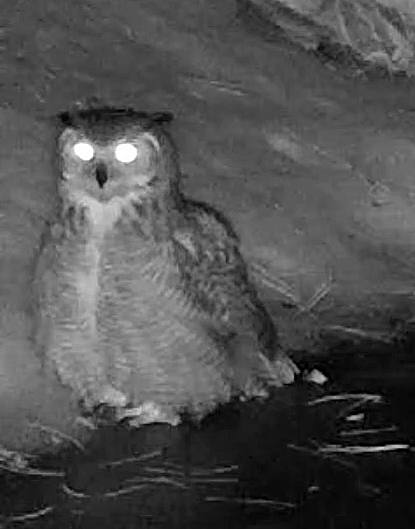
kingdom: Animalia
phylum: Chordata
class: Aves
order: Strigiformes
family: Strigidae
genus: Bubo
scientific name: Bubo virginianus
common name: Great horned owl
